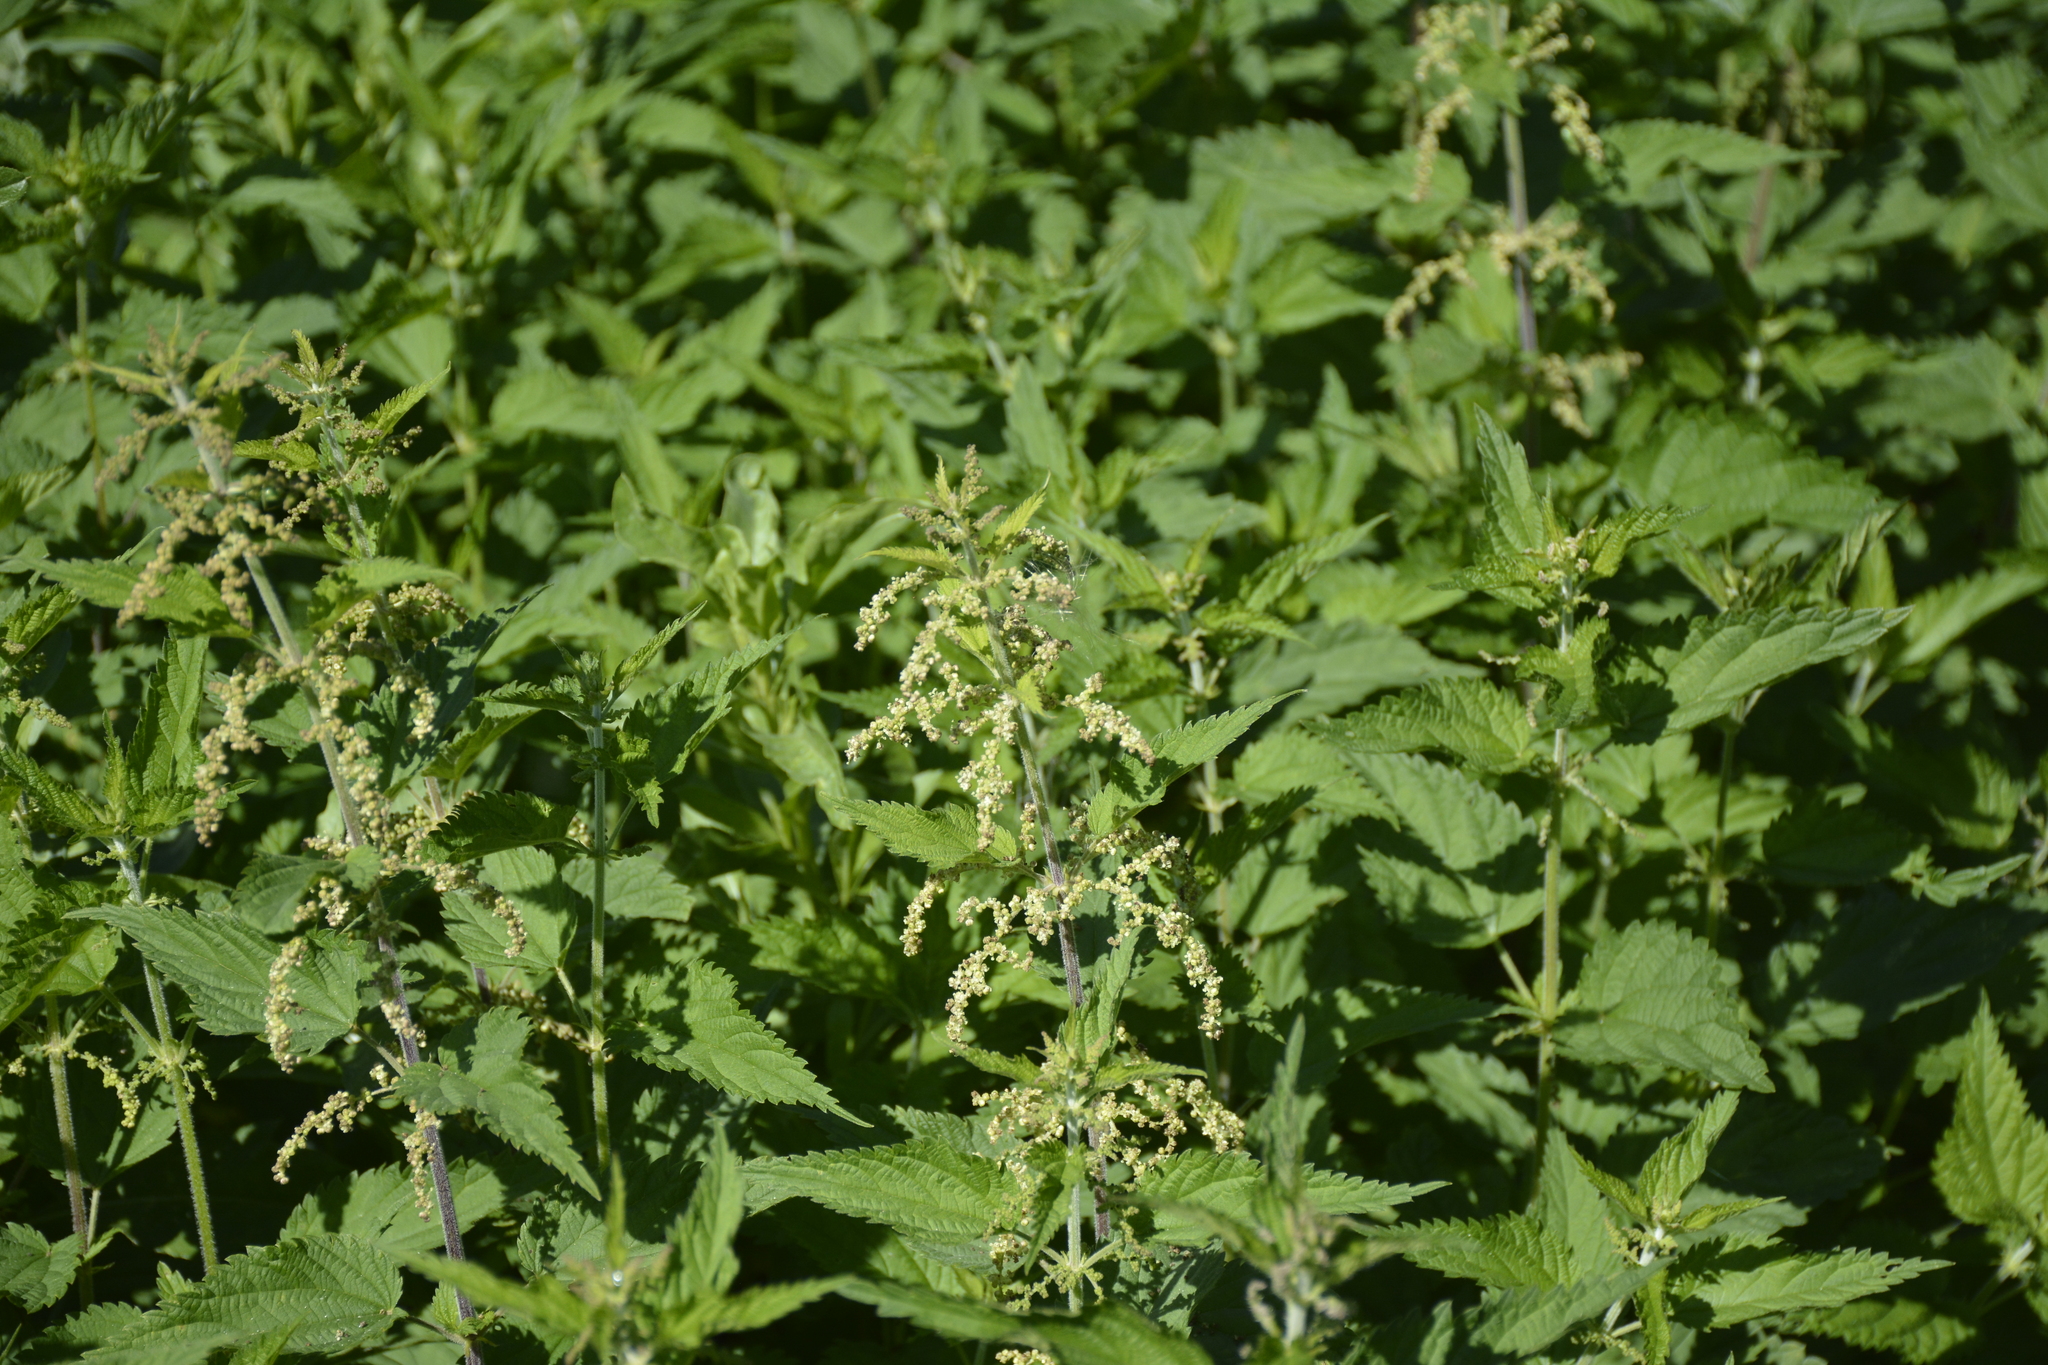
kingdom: Plantae
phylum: Tracheophyta
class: Magnoliopsida
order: Rosales
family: Urticaceae
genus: Urtica
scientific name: Urtica dioica
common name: Common nettle
